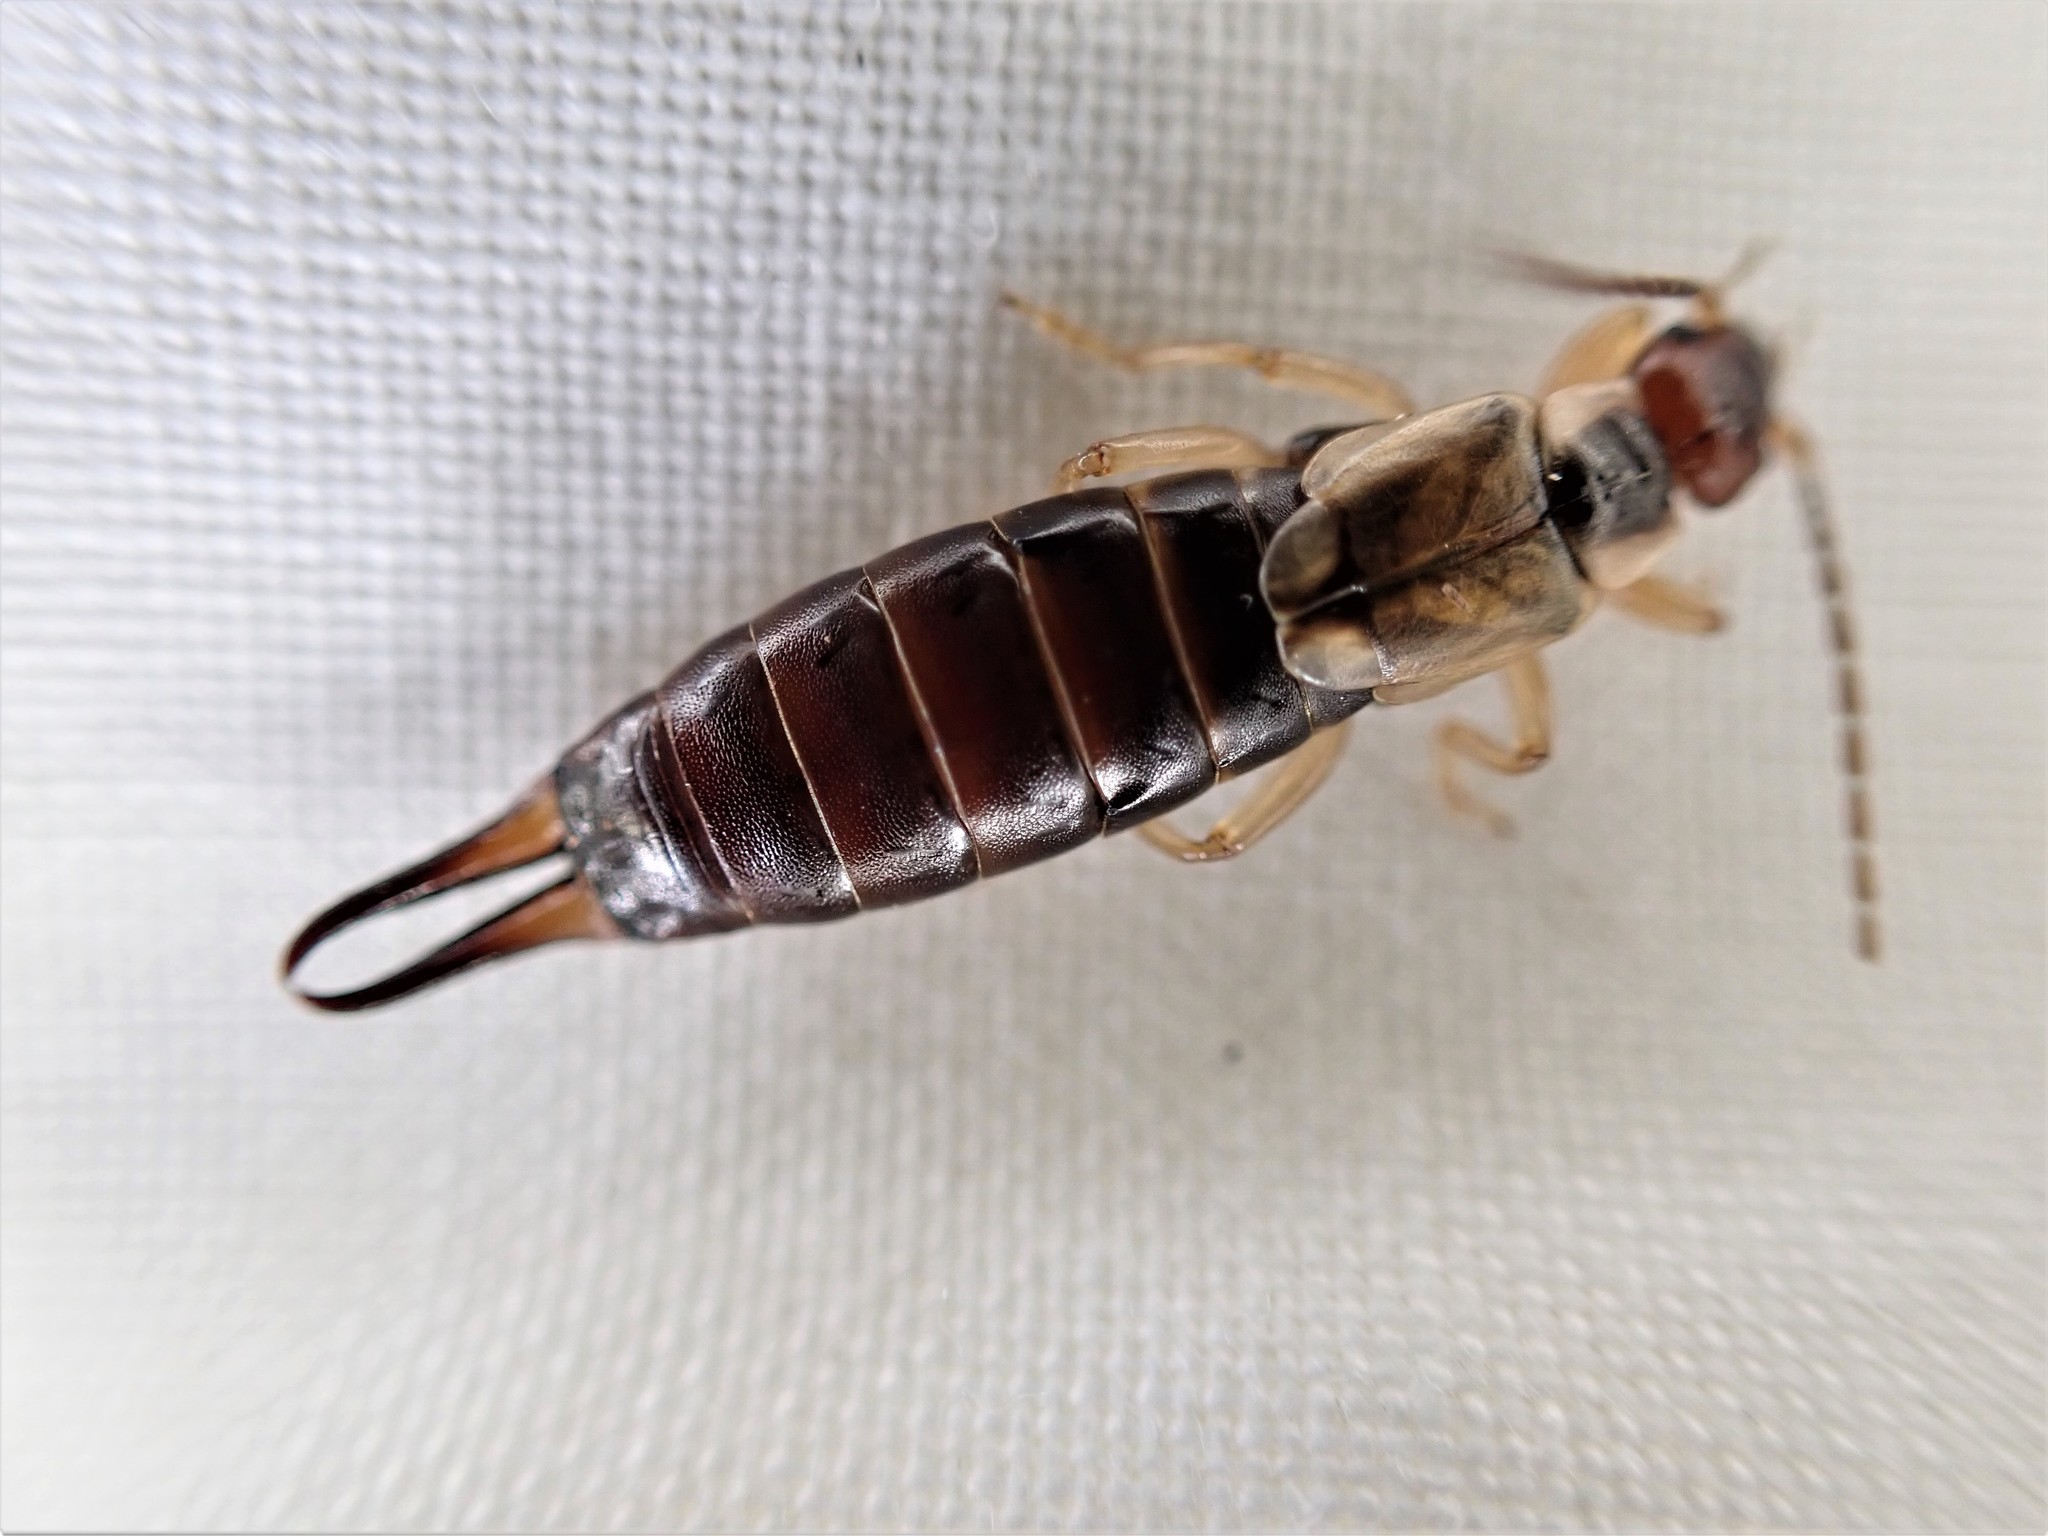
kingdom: Animalia
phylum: Arthropoda
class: Insecta
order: Dermaptera
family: Forficulidae
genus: Forficula
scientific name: Forficula
